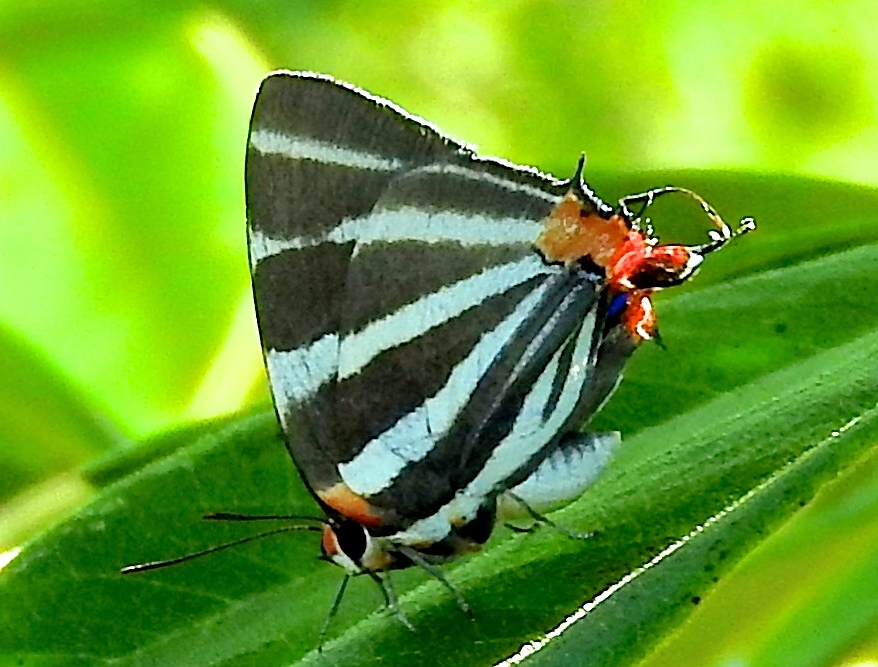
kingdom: Animalia
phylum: Arthropoda
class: Insecta
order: Lepidoptera
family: Lycaenidae
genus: Thecla
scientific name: Thecla bathildis
